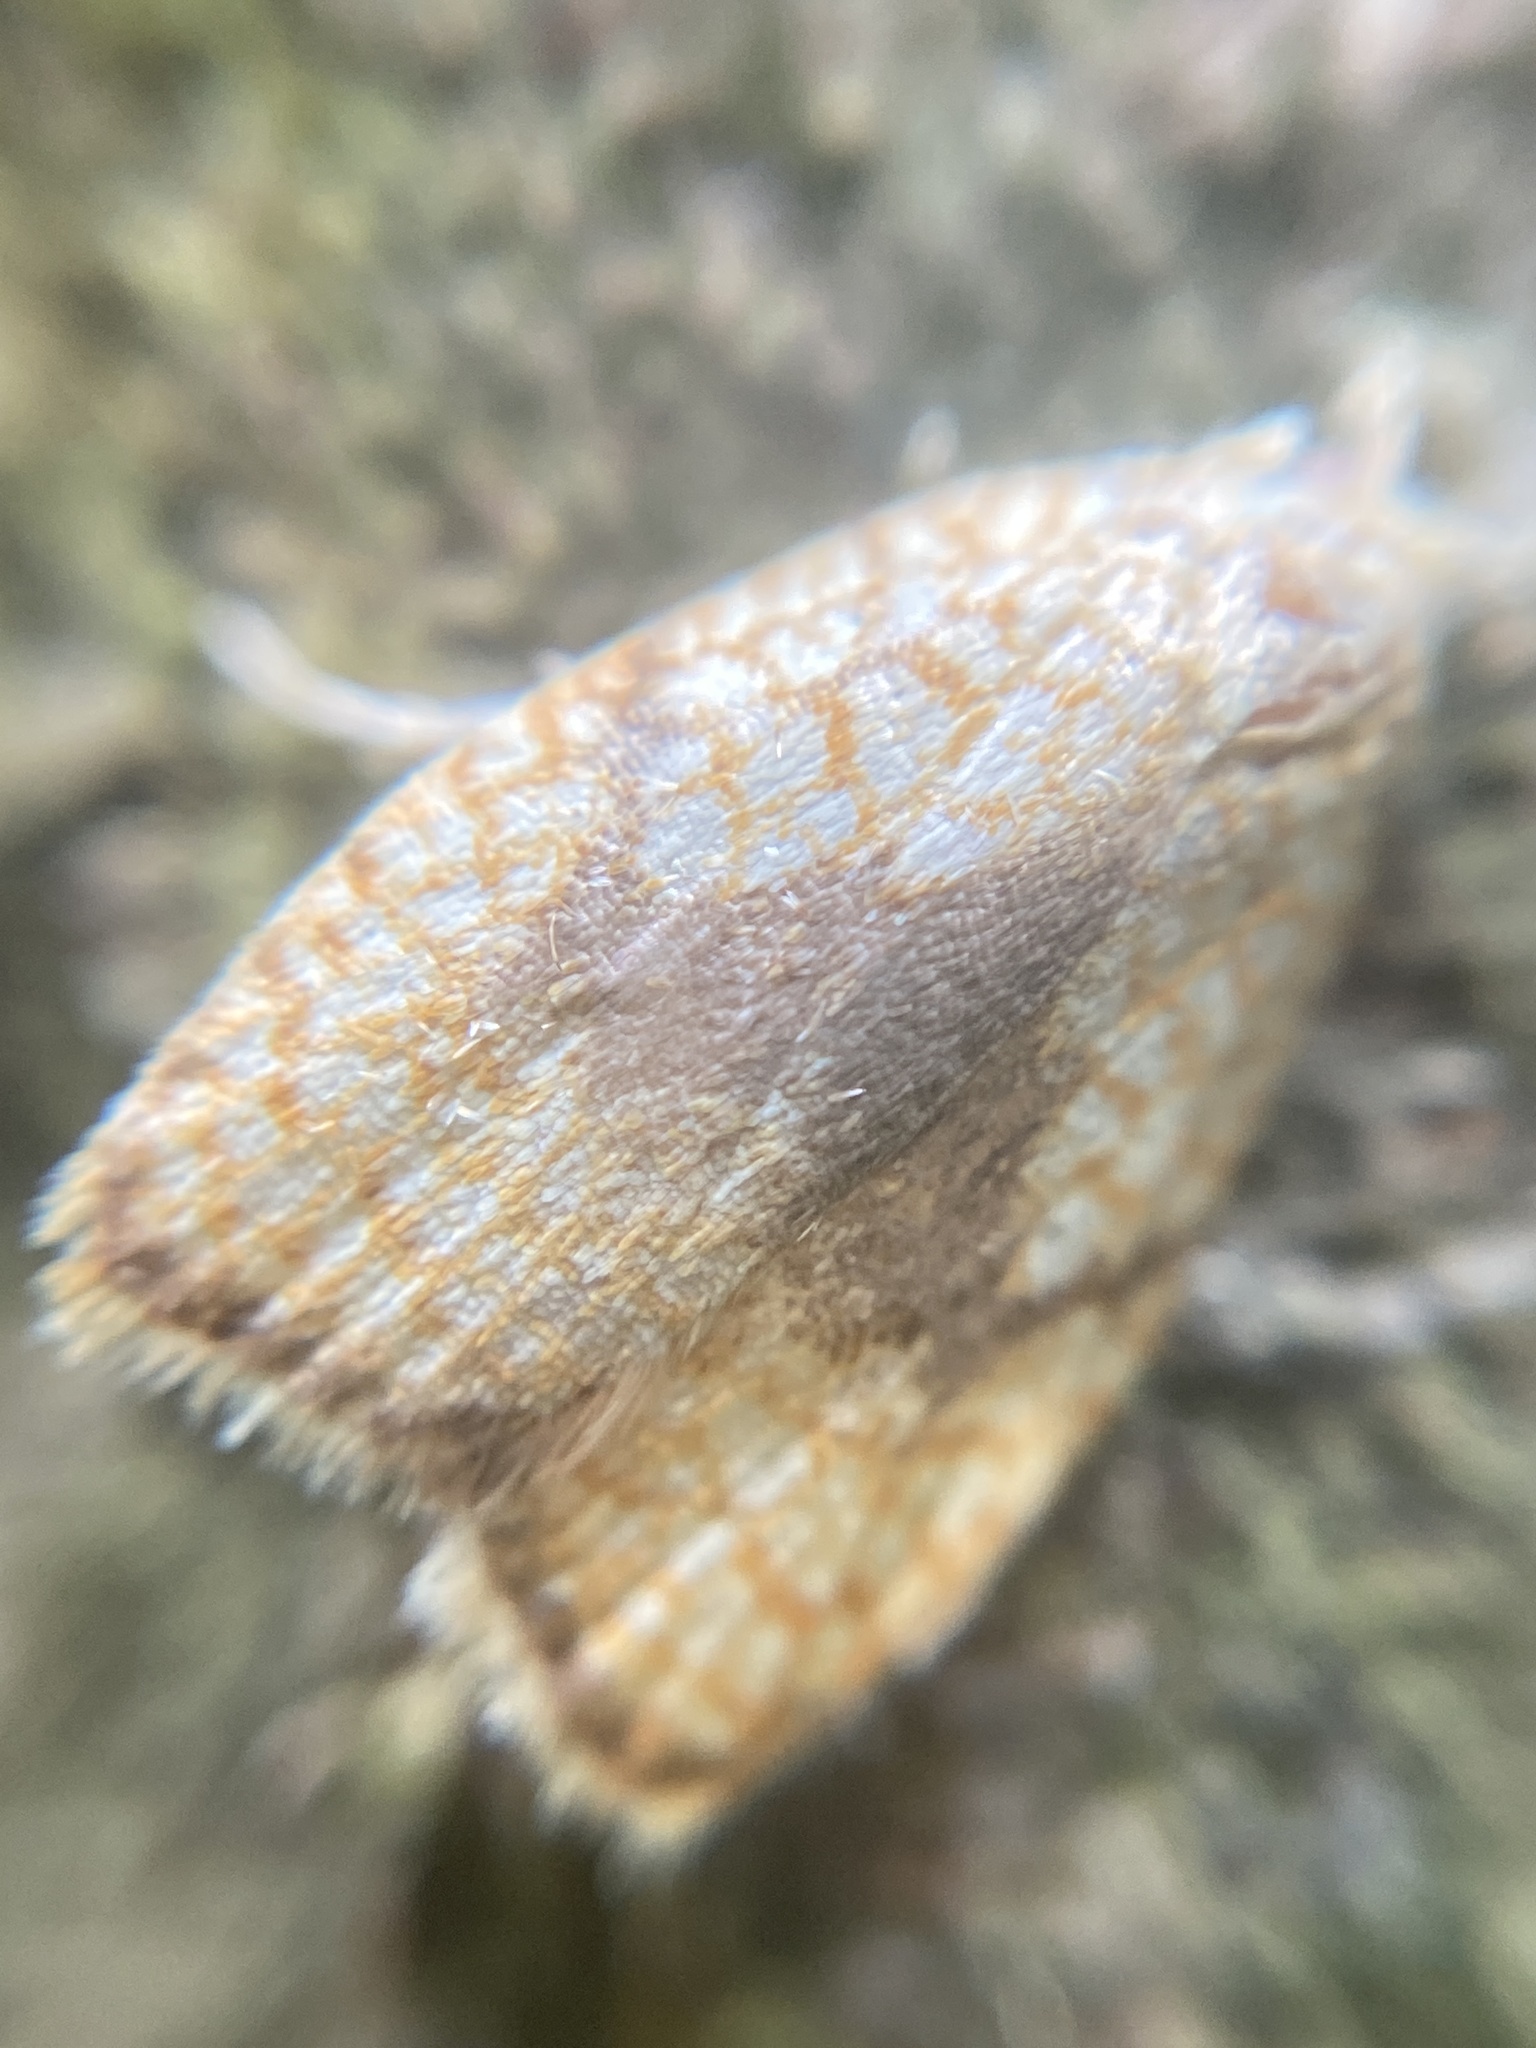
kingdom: Animalia
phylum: Arthropoda
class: Insecta
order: Lepidoptera
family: Tortricidae
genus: Acleris
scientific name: Acleris forsskaleana
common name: Maple button
